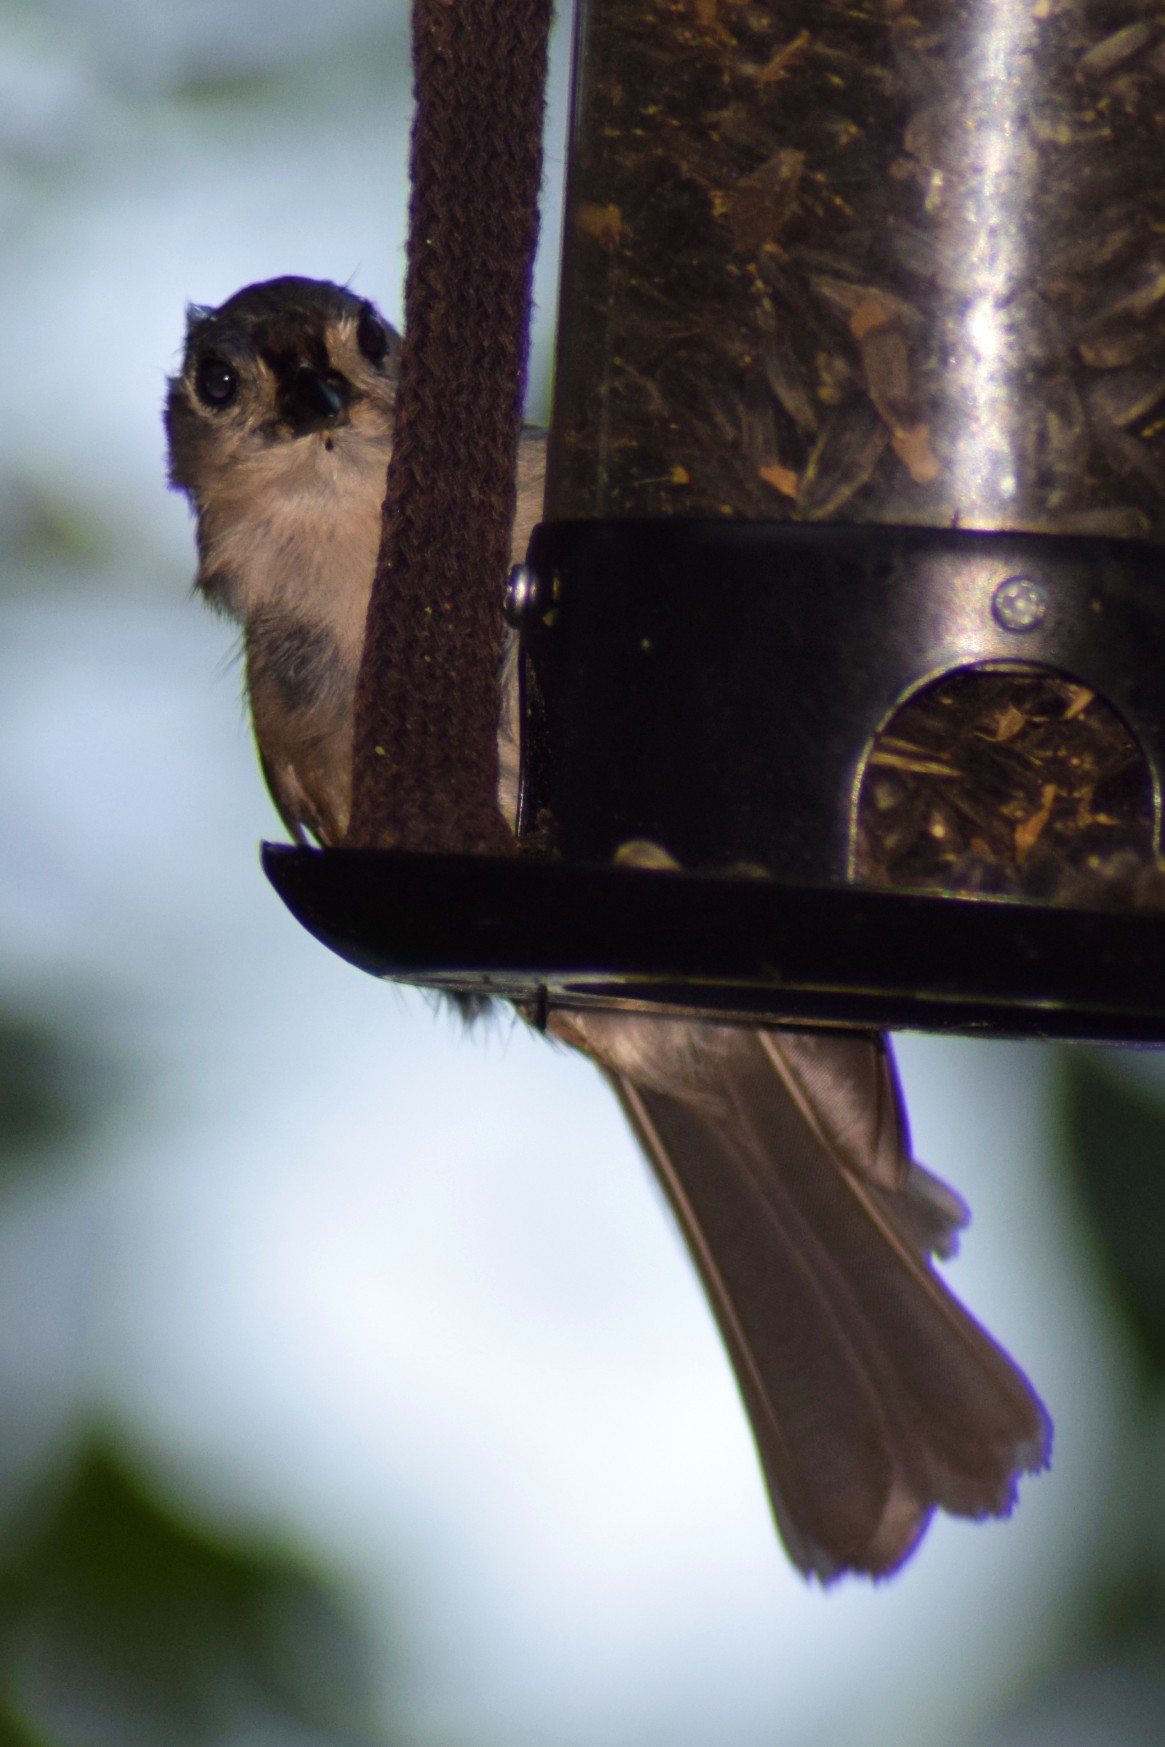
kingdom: Animalia
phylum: Chordata
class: Aves
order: Passeriformes
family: Paridae
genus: Baeolophus
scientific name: Baeolophus bicolor
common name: Tufted titmouse
